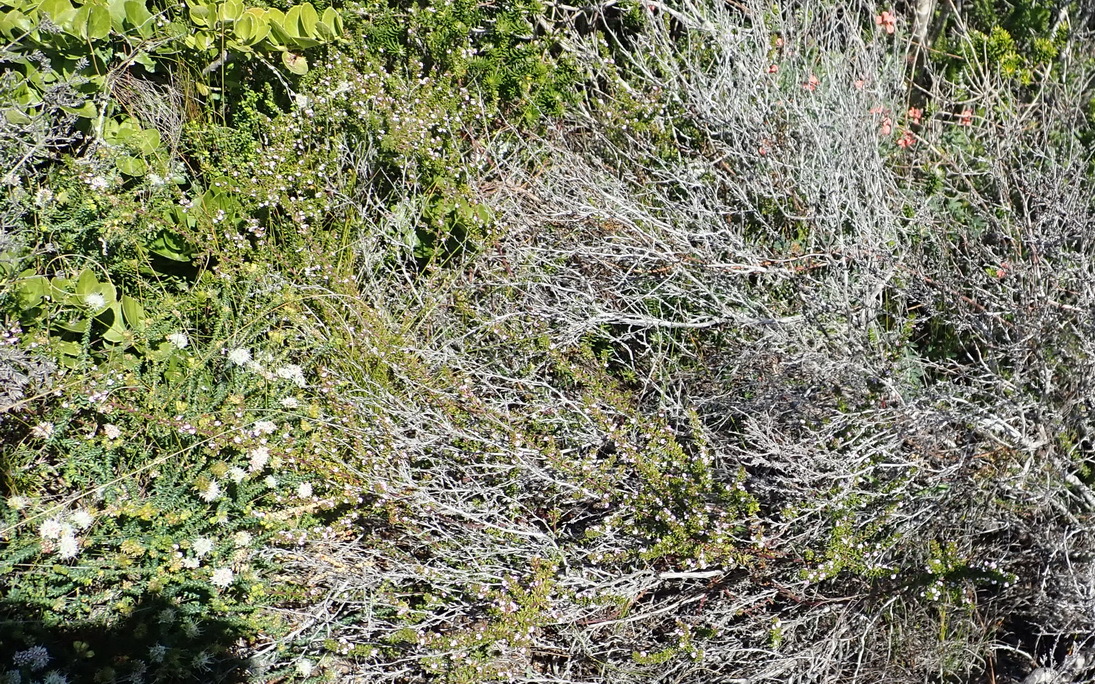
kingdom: Plantae
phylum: Tracheophyta
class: Magnoliopsida
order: Fabales
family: Polygalaceae
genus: Muraltia
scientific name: Muraltia satureioides
